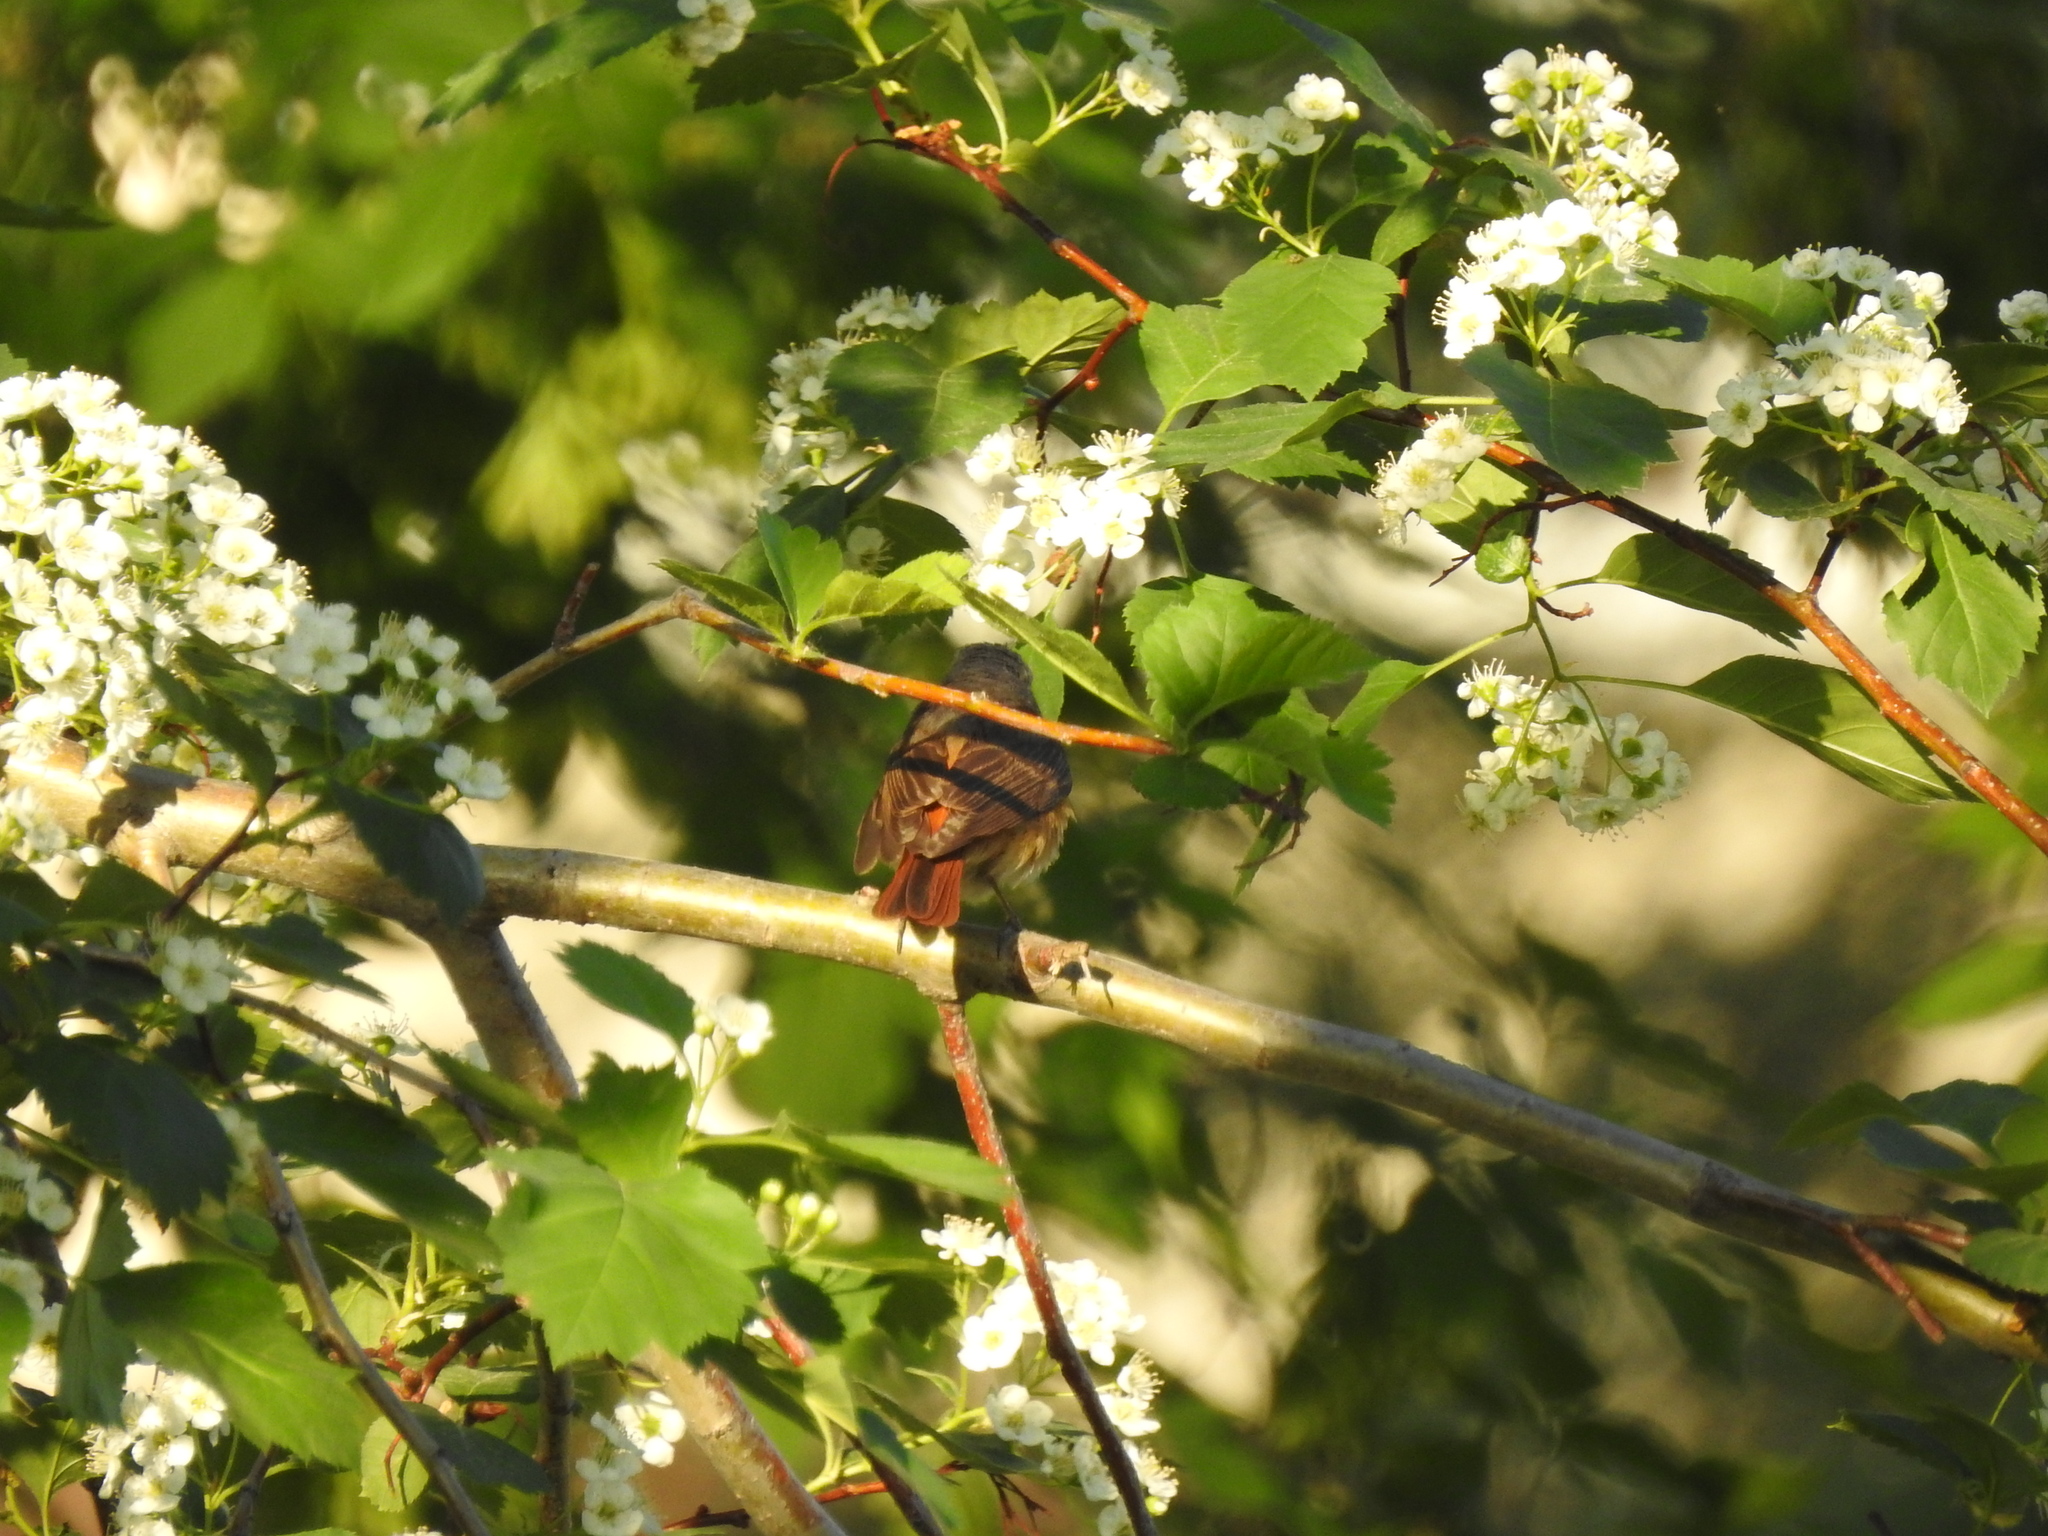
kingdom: Animalia
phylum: Chordata
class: Aves
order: Passeriformes
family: Muscicapidae
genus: Phoenicurus
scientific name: Phoenicurus phoenicurus
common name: Common redstart
